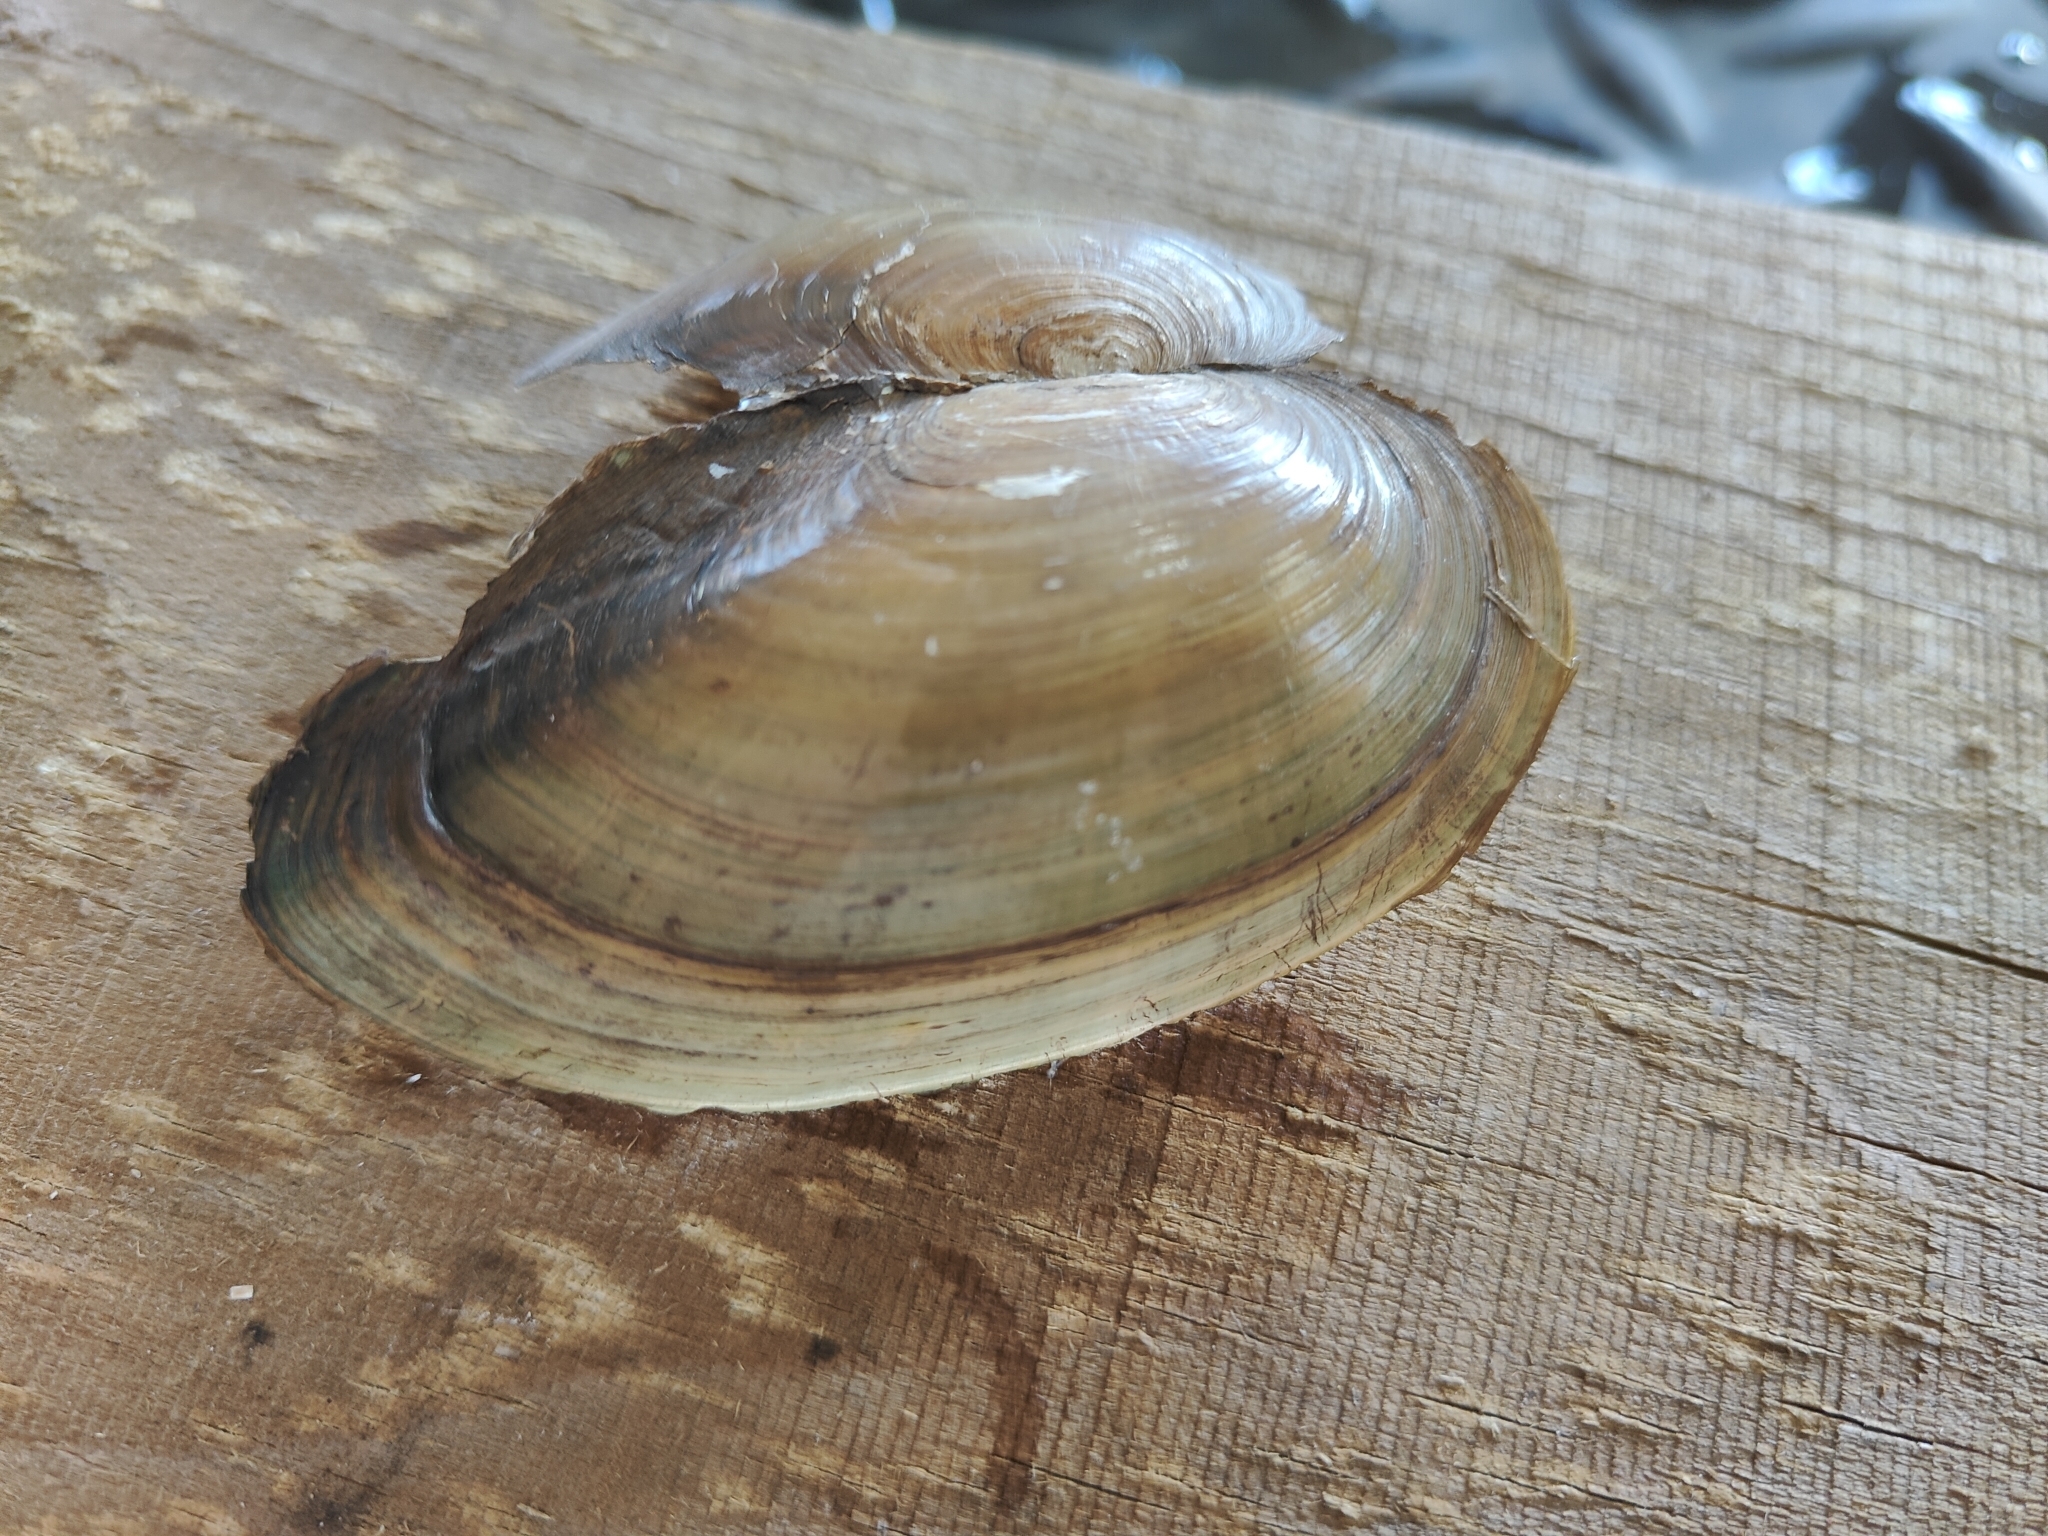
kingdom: Animalia
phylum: Mollusca
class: Bivalvia
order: Unionida
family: Unionidae
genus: Utterbackia
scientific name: Utterbackia imbecillis
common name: Paper pondshell
